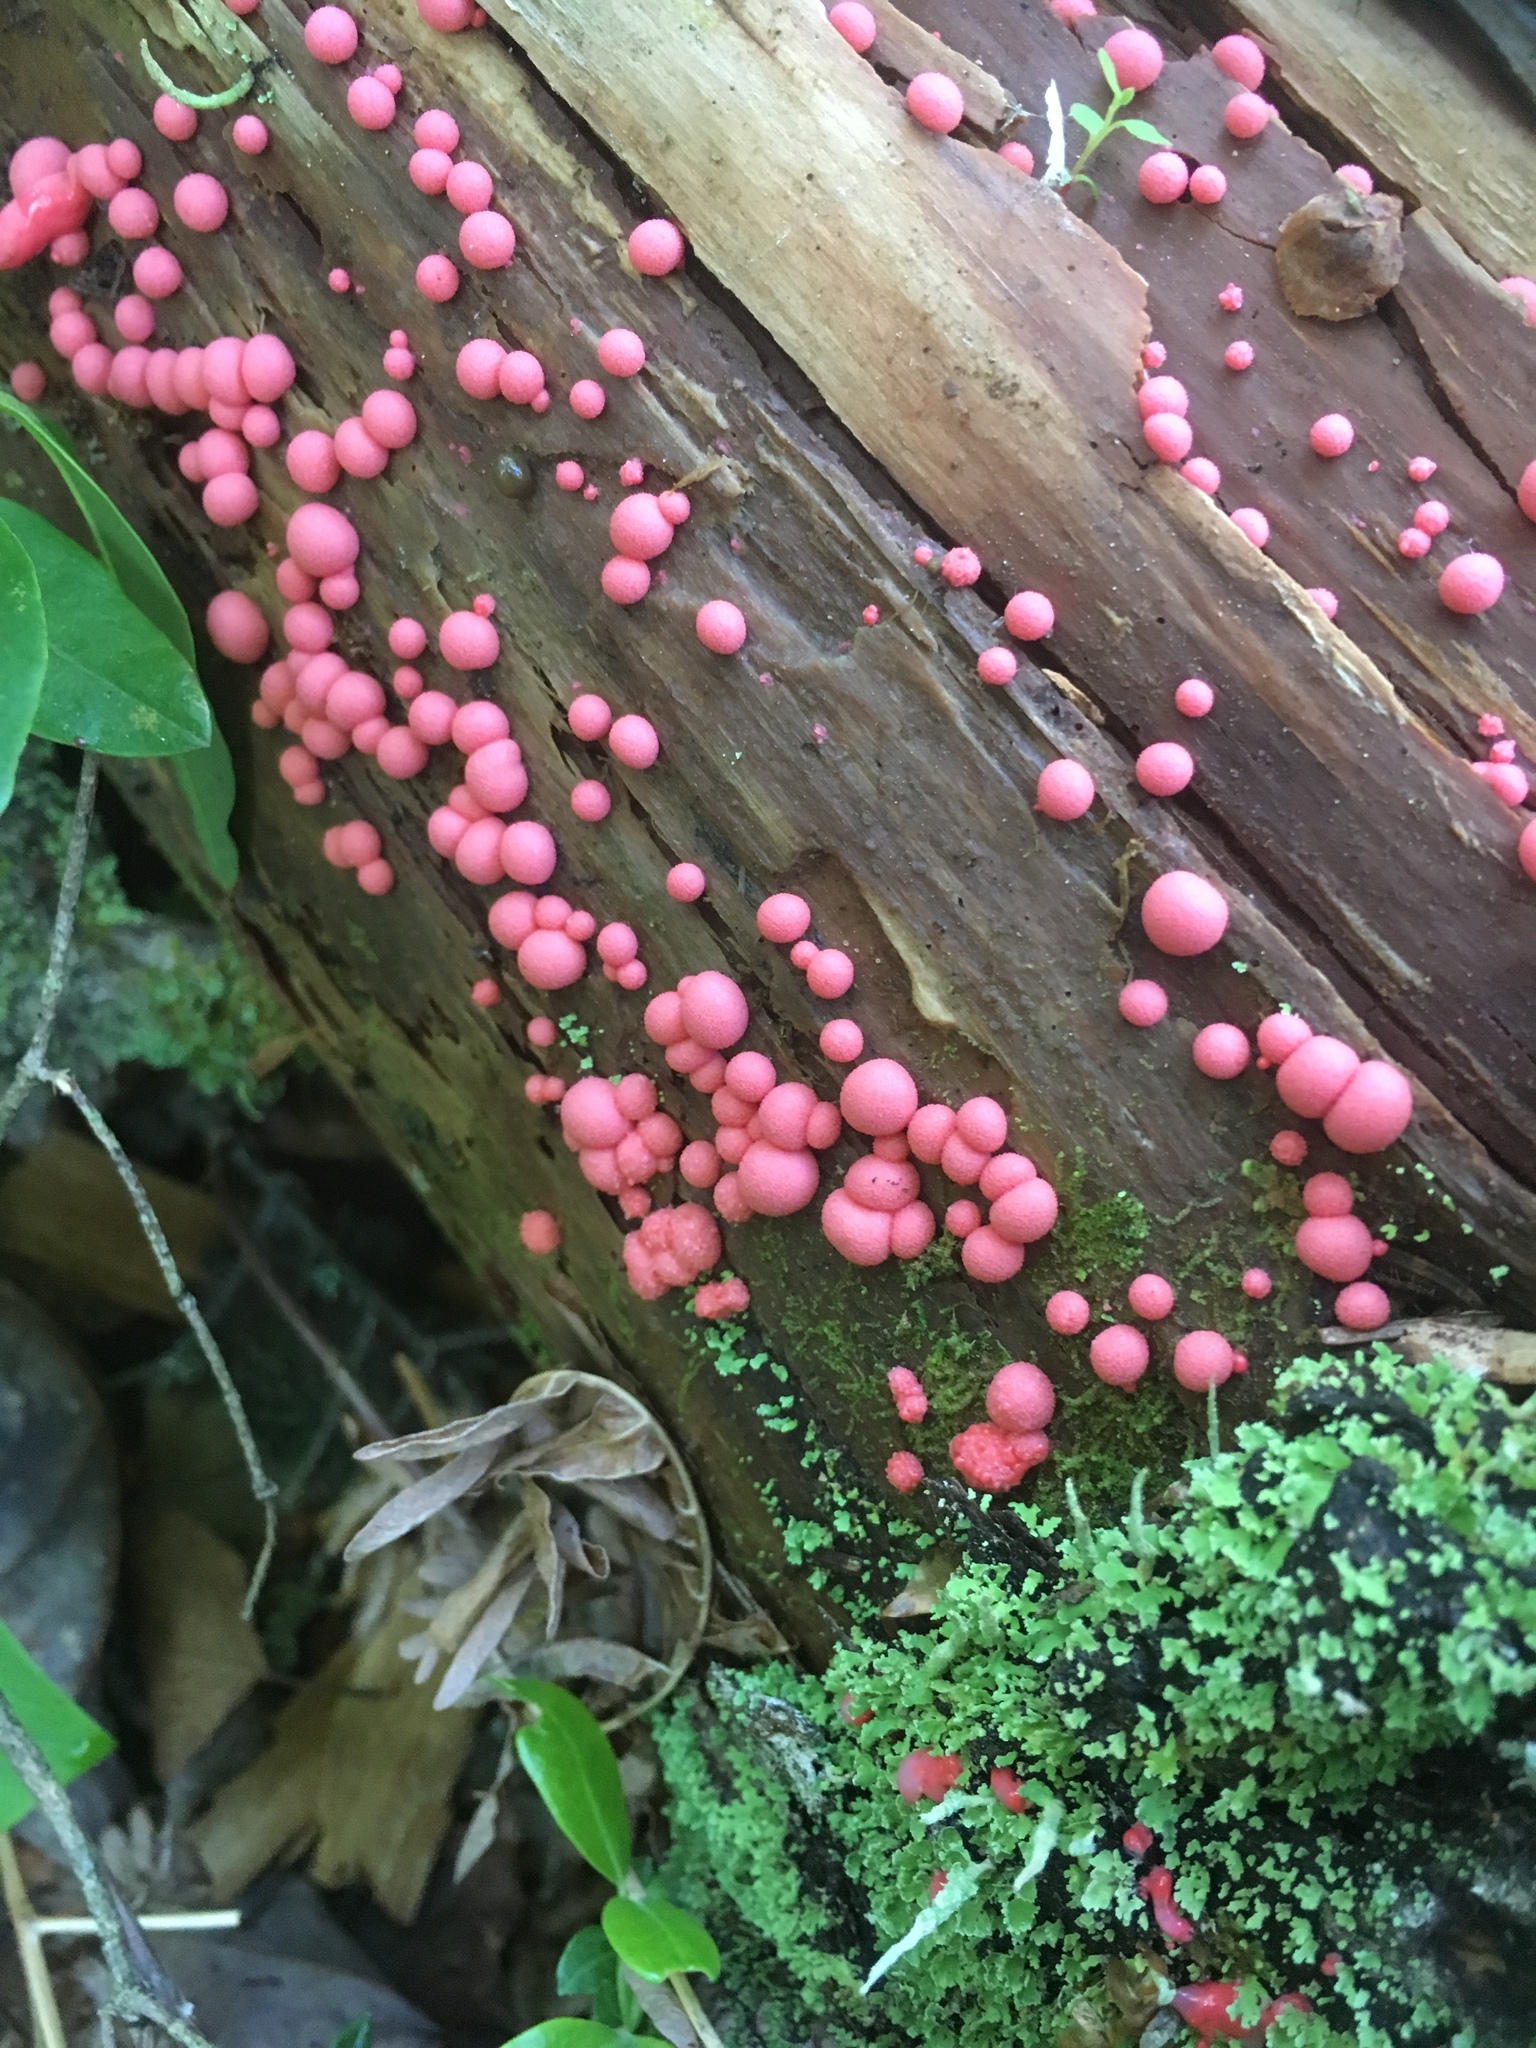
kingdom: Protozoa
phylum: Mycetozoa
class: Myxomycetes
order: Cribrariales
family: Tubiferaceae
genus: Lycogala
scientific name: Lycogala epidendrum
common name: Wolf's milk
